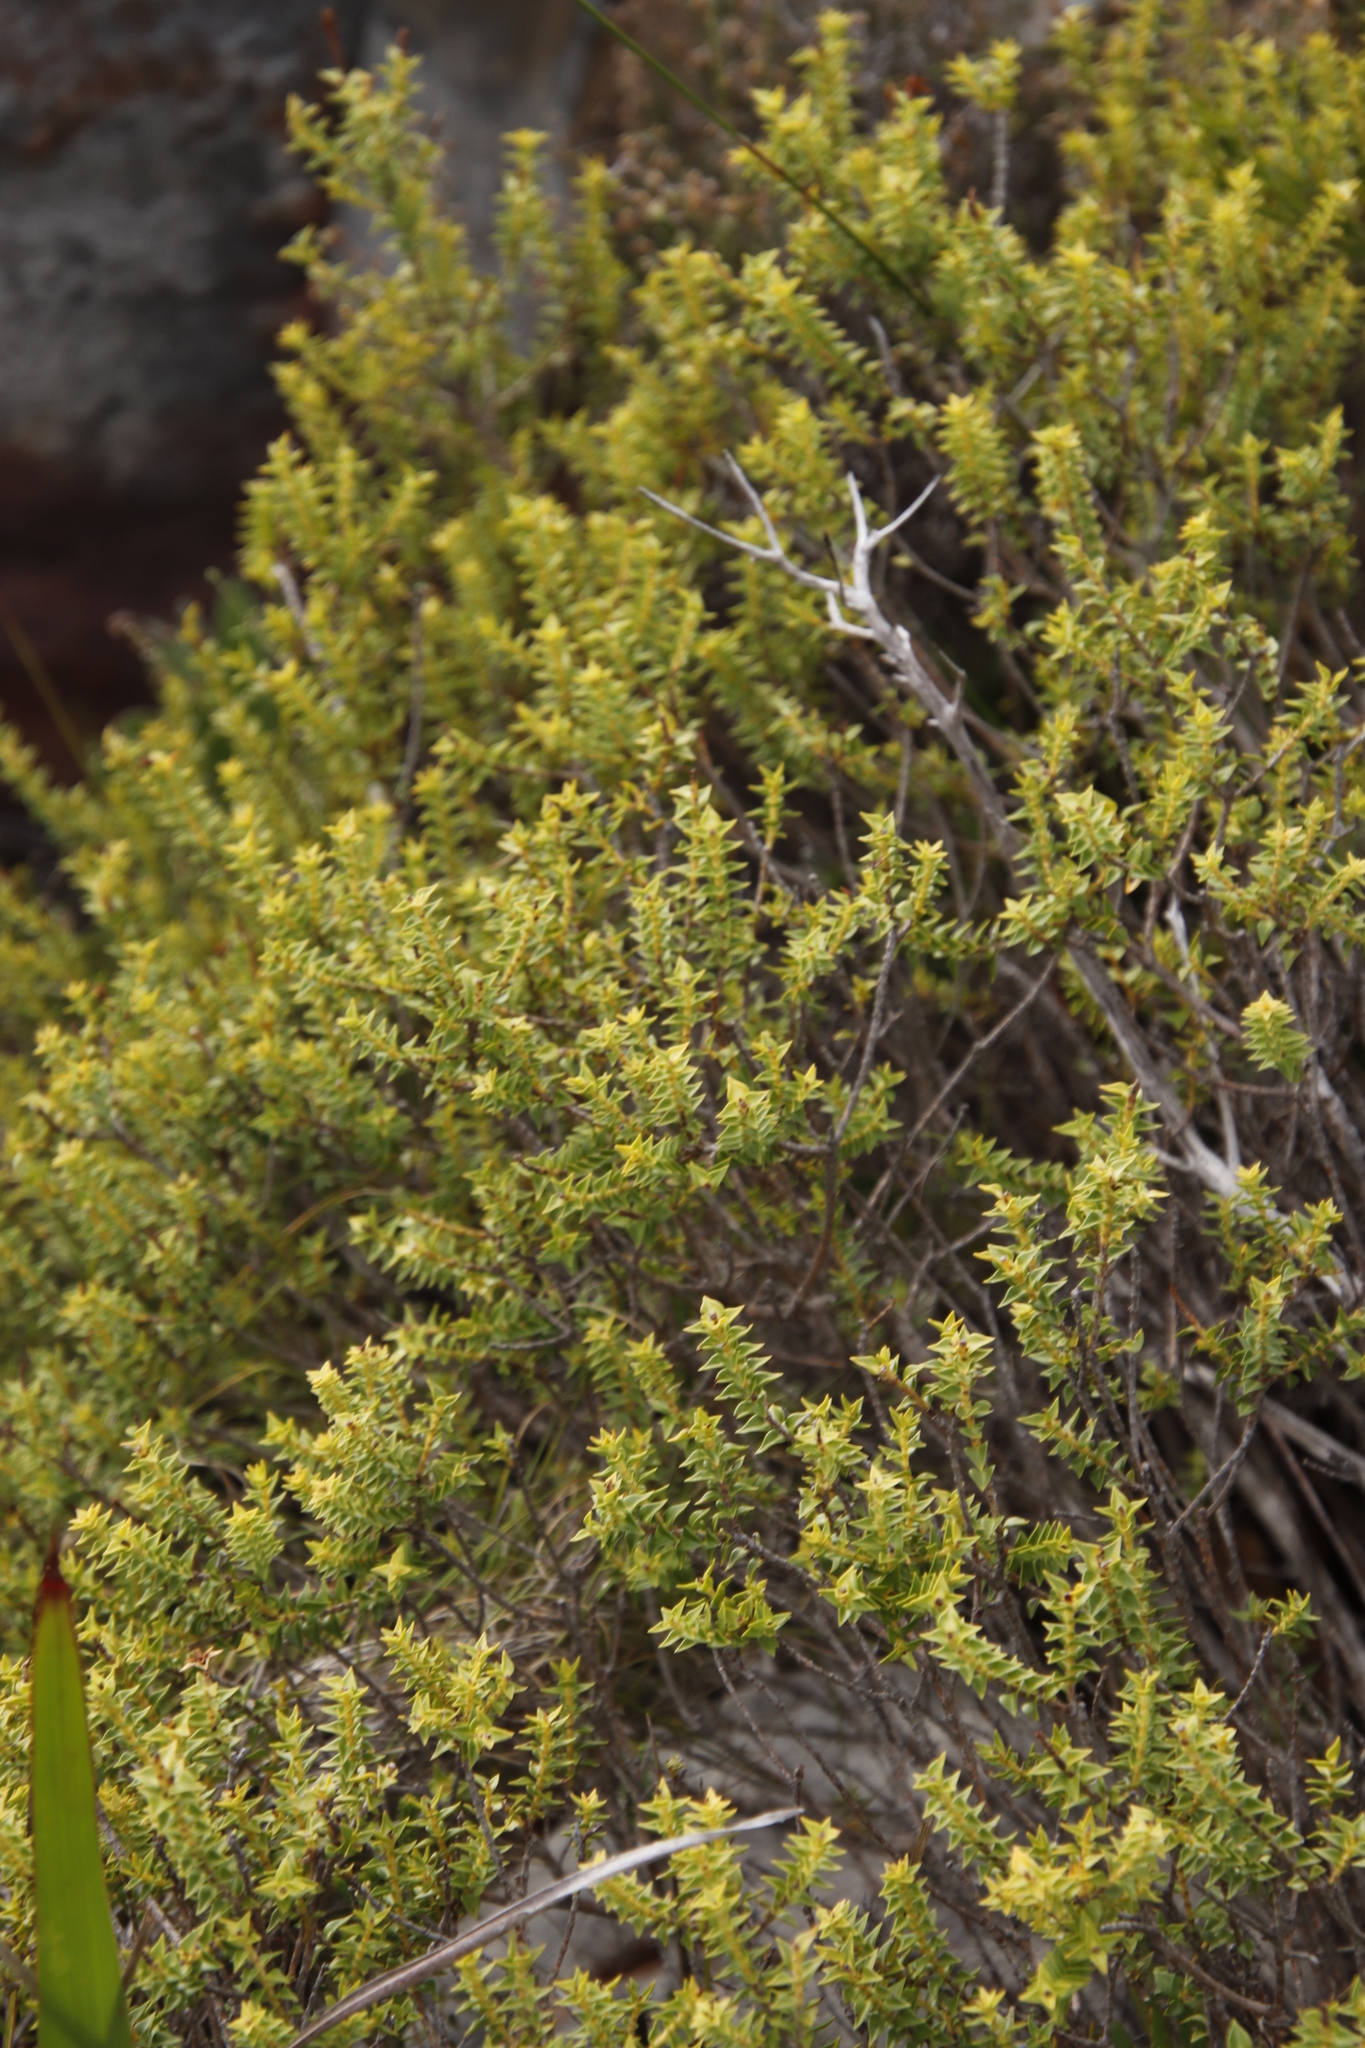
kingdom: Plantae
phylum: Tracheophyta
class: Magnoliopsida
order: Myrtales
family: Penaeaceae
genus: Penaea
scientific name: Penaea mucronata
